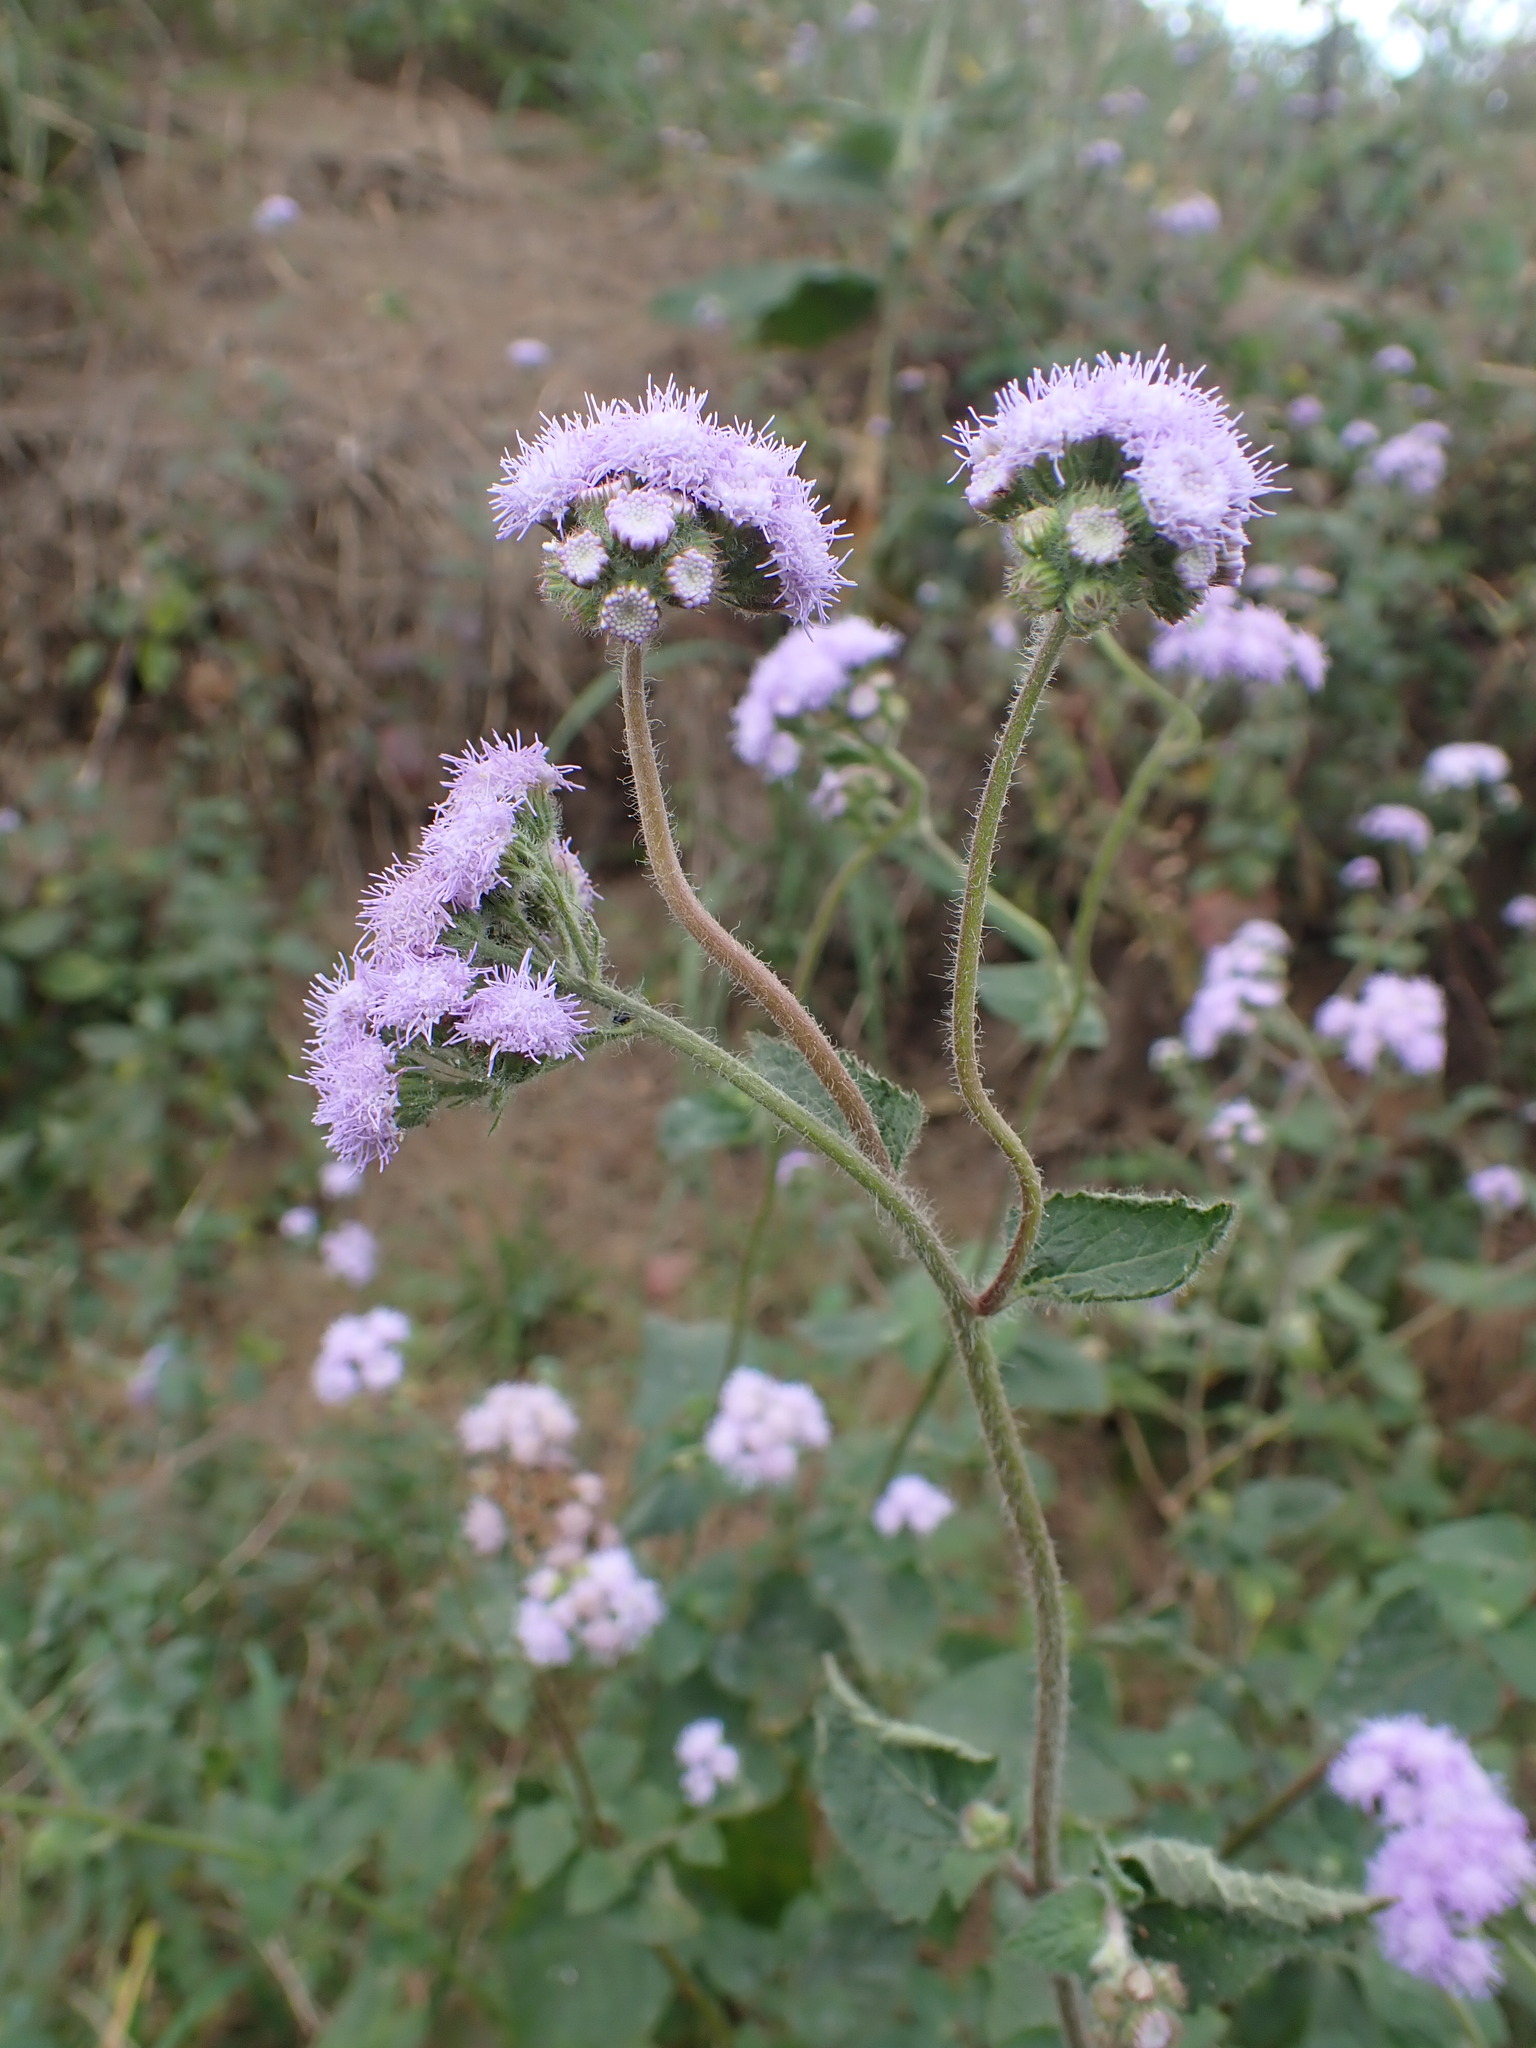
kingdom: Plantae
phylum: Tracheophyta
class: Magnoliopsida
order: Asterales
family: Asteraceae
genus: Ageratum
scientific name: Ageratum houstonianum
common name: Bluemink
